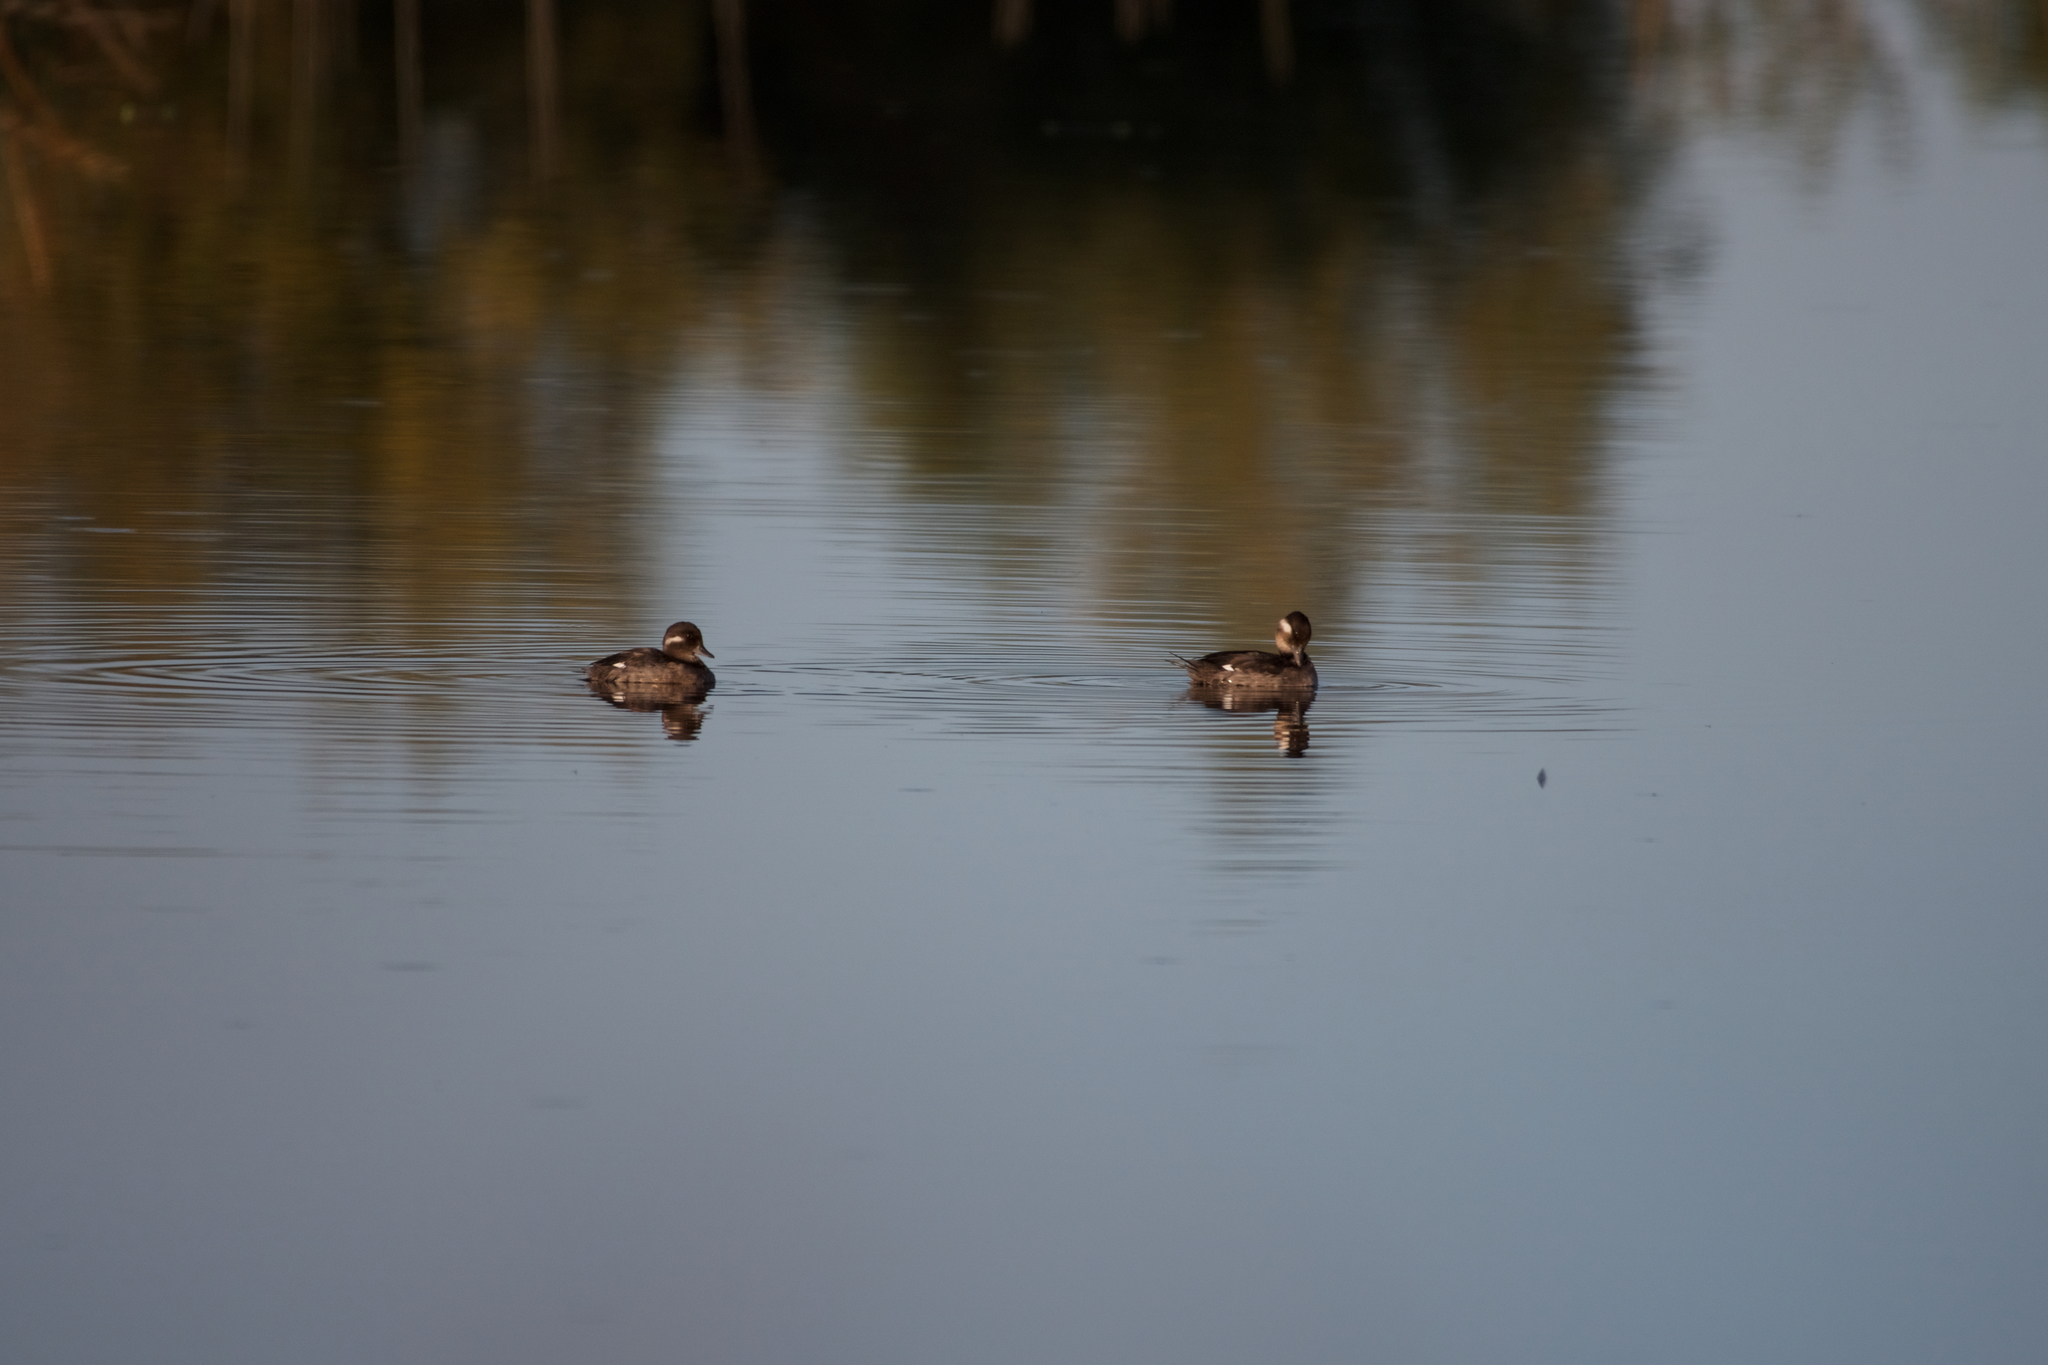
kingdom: Animalia
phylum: Chordata
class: Aves
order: Anseriformes
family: Anatidae
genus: Bucephala
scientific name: Bucephala albeola
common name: Bufflehead
